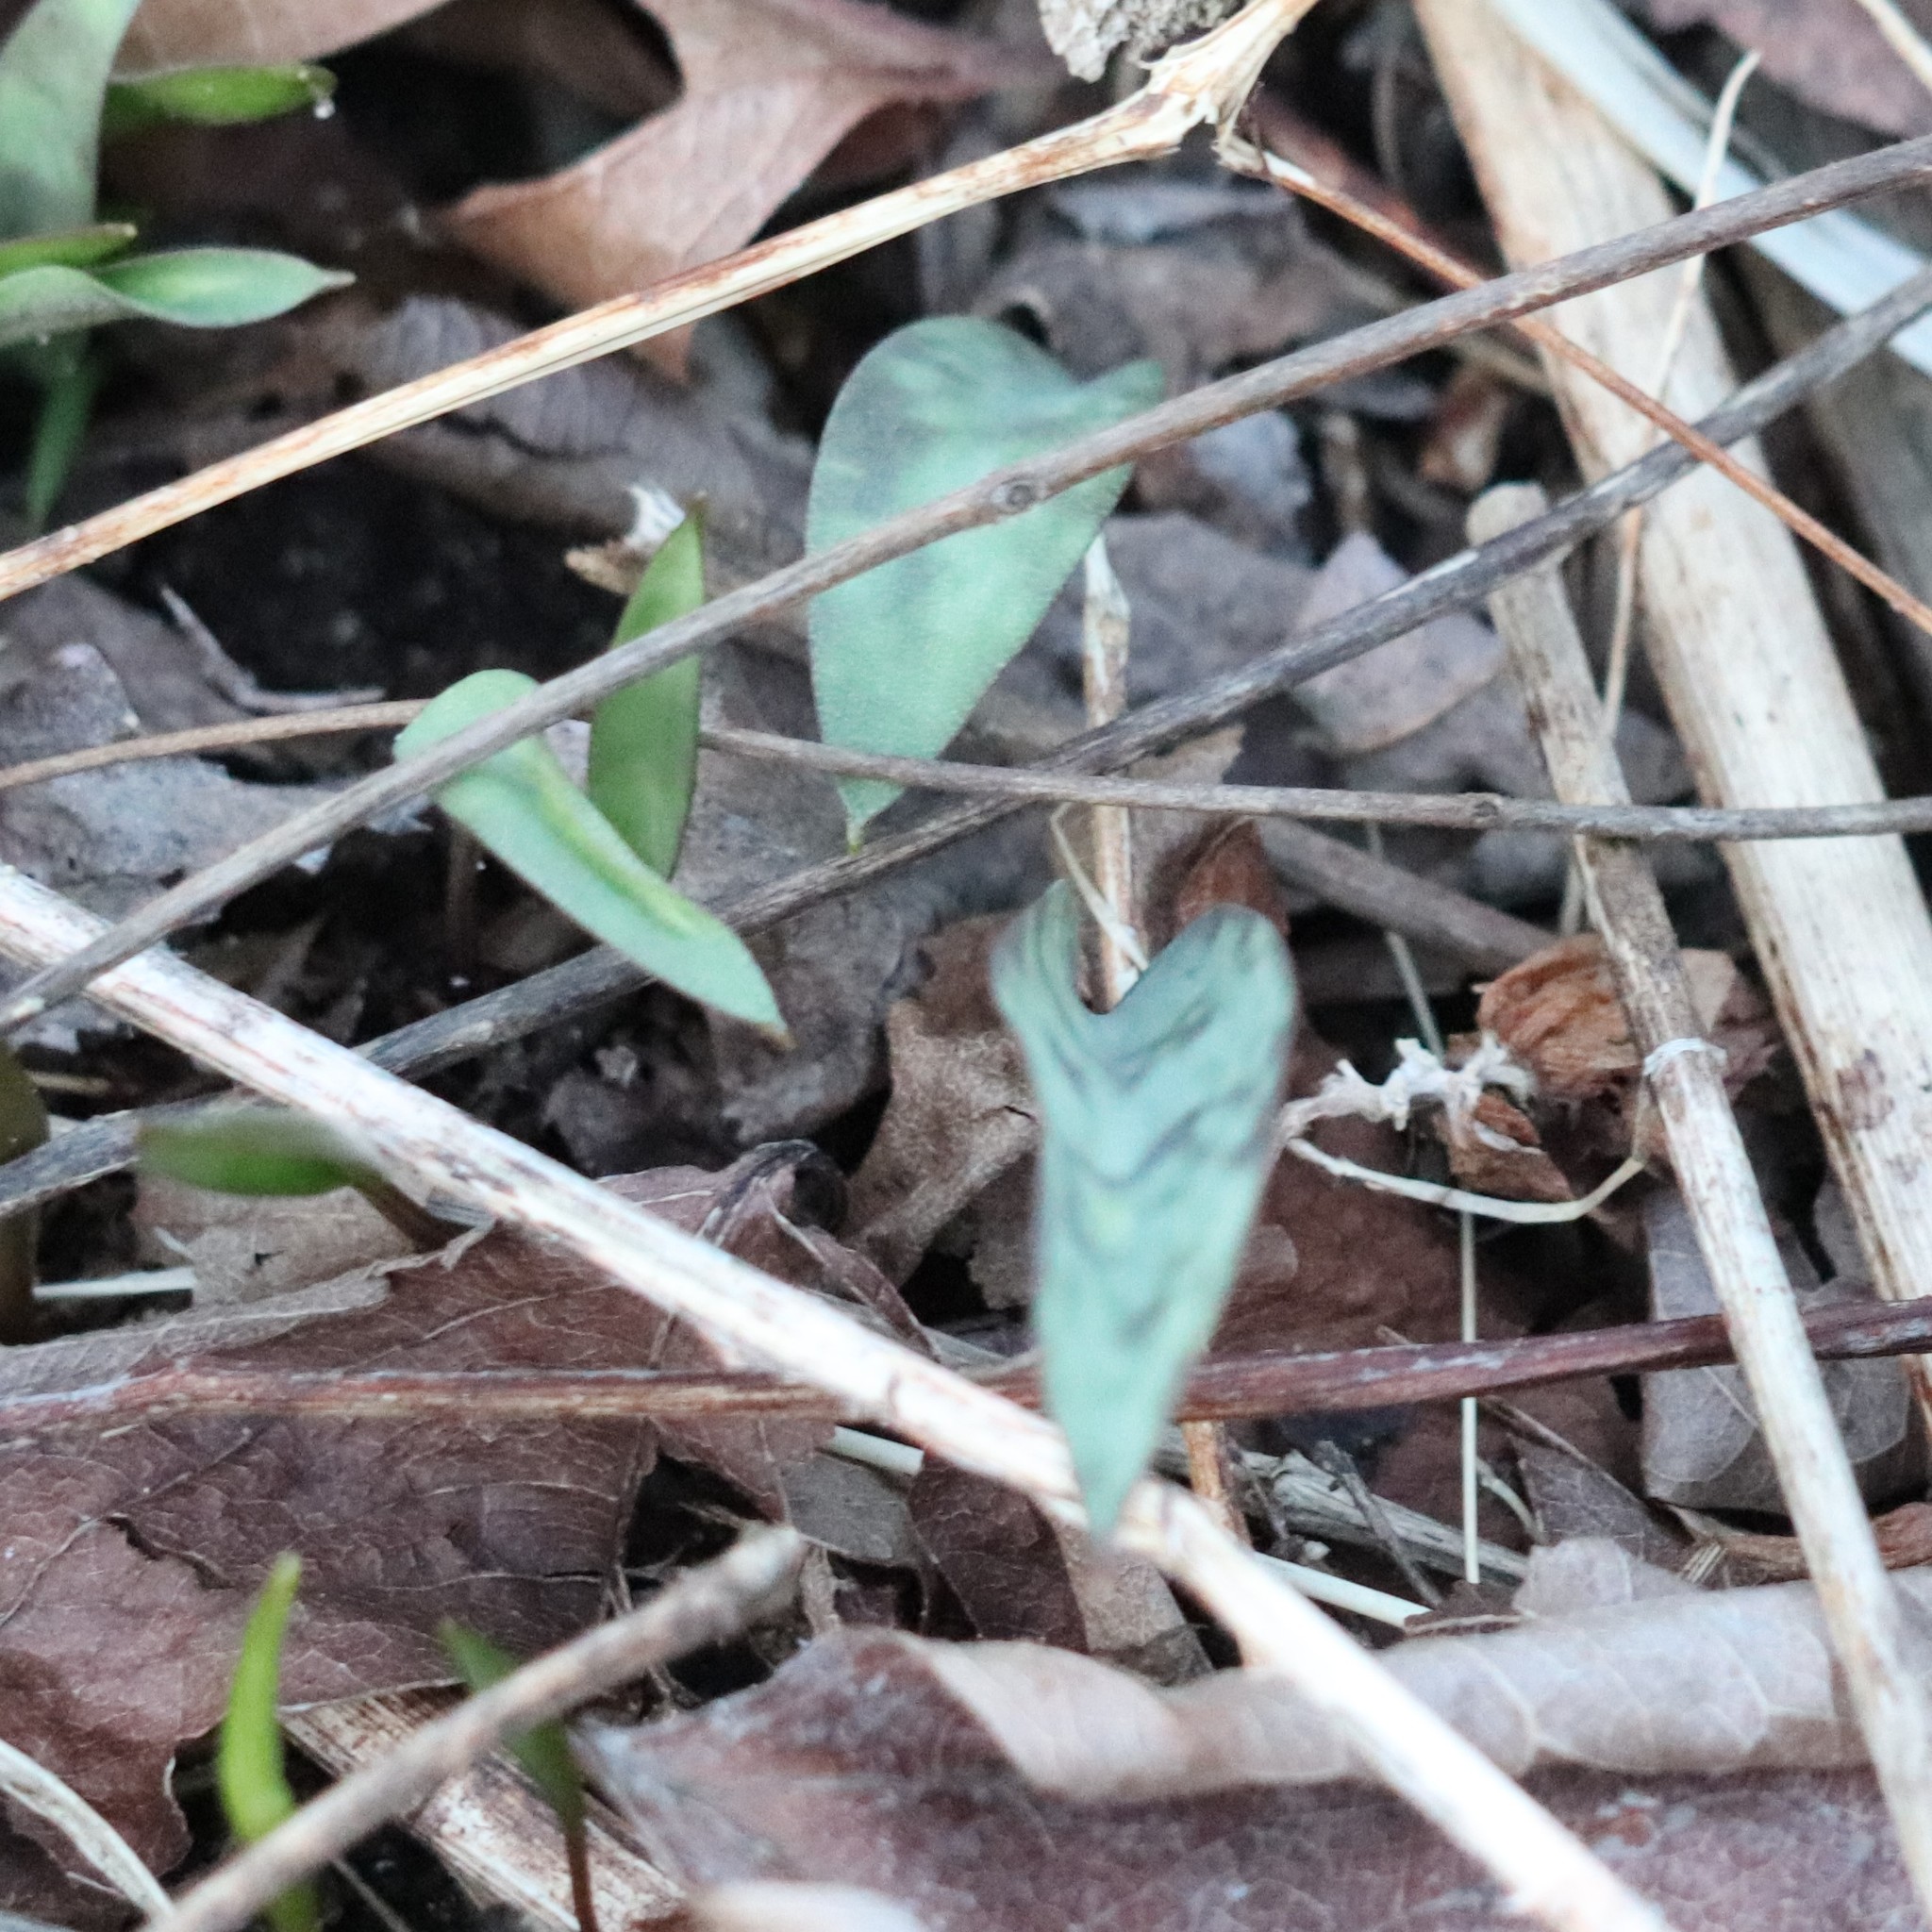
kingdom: Plantae
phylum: Tracheophyta
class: Liliopsida
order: Liliales
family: Liliaceae
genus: Erythronium
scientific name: Erythronium americanum
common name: Yellow adder's-tongue
